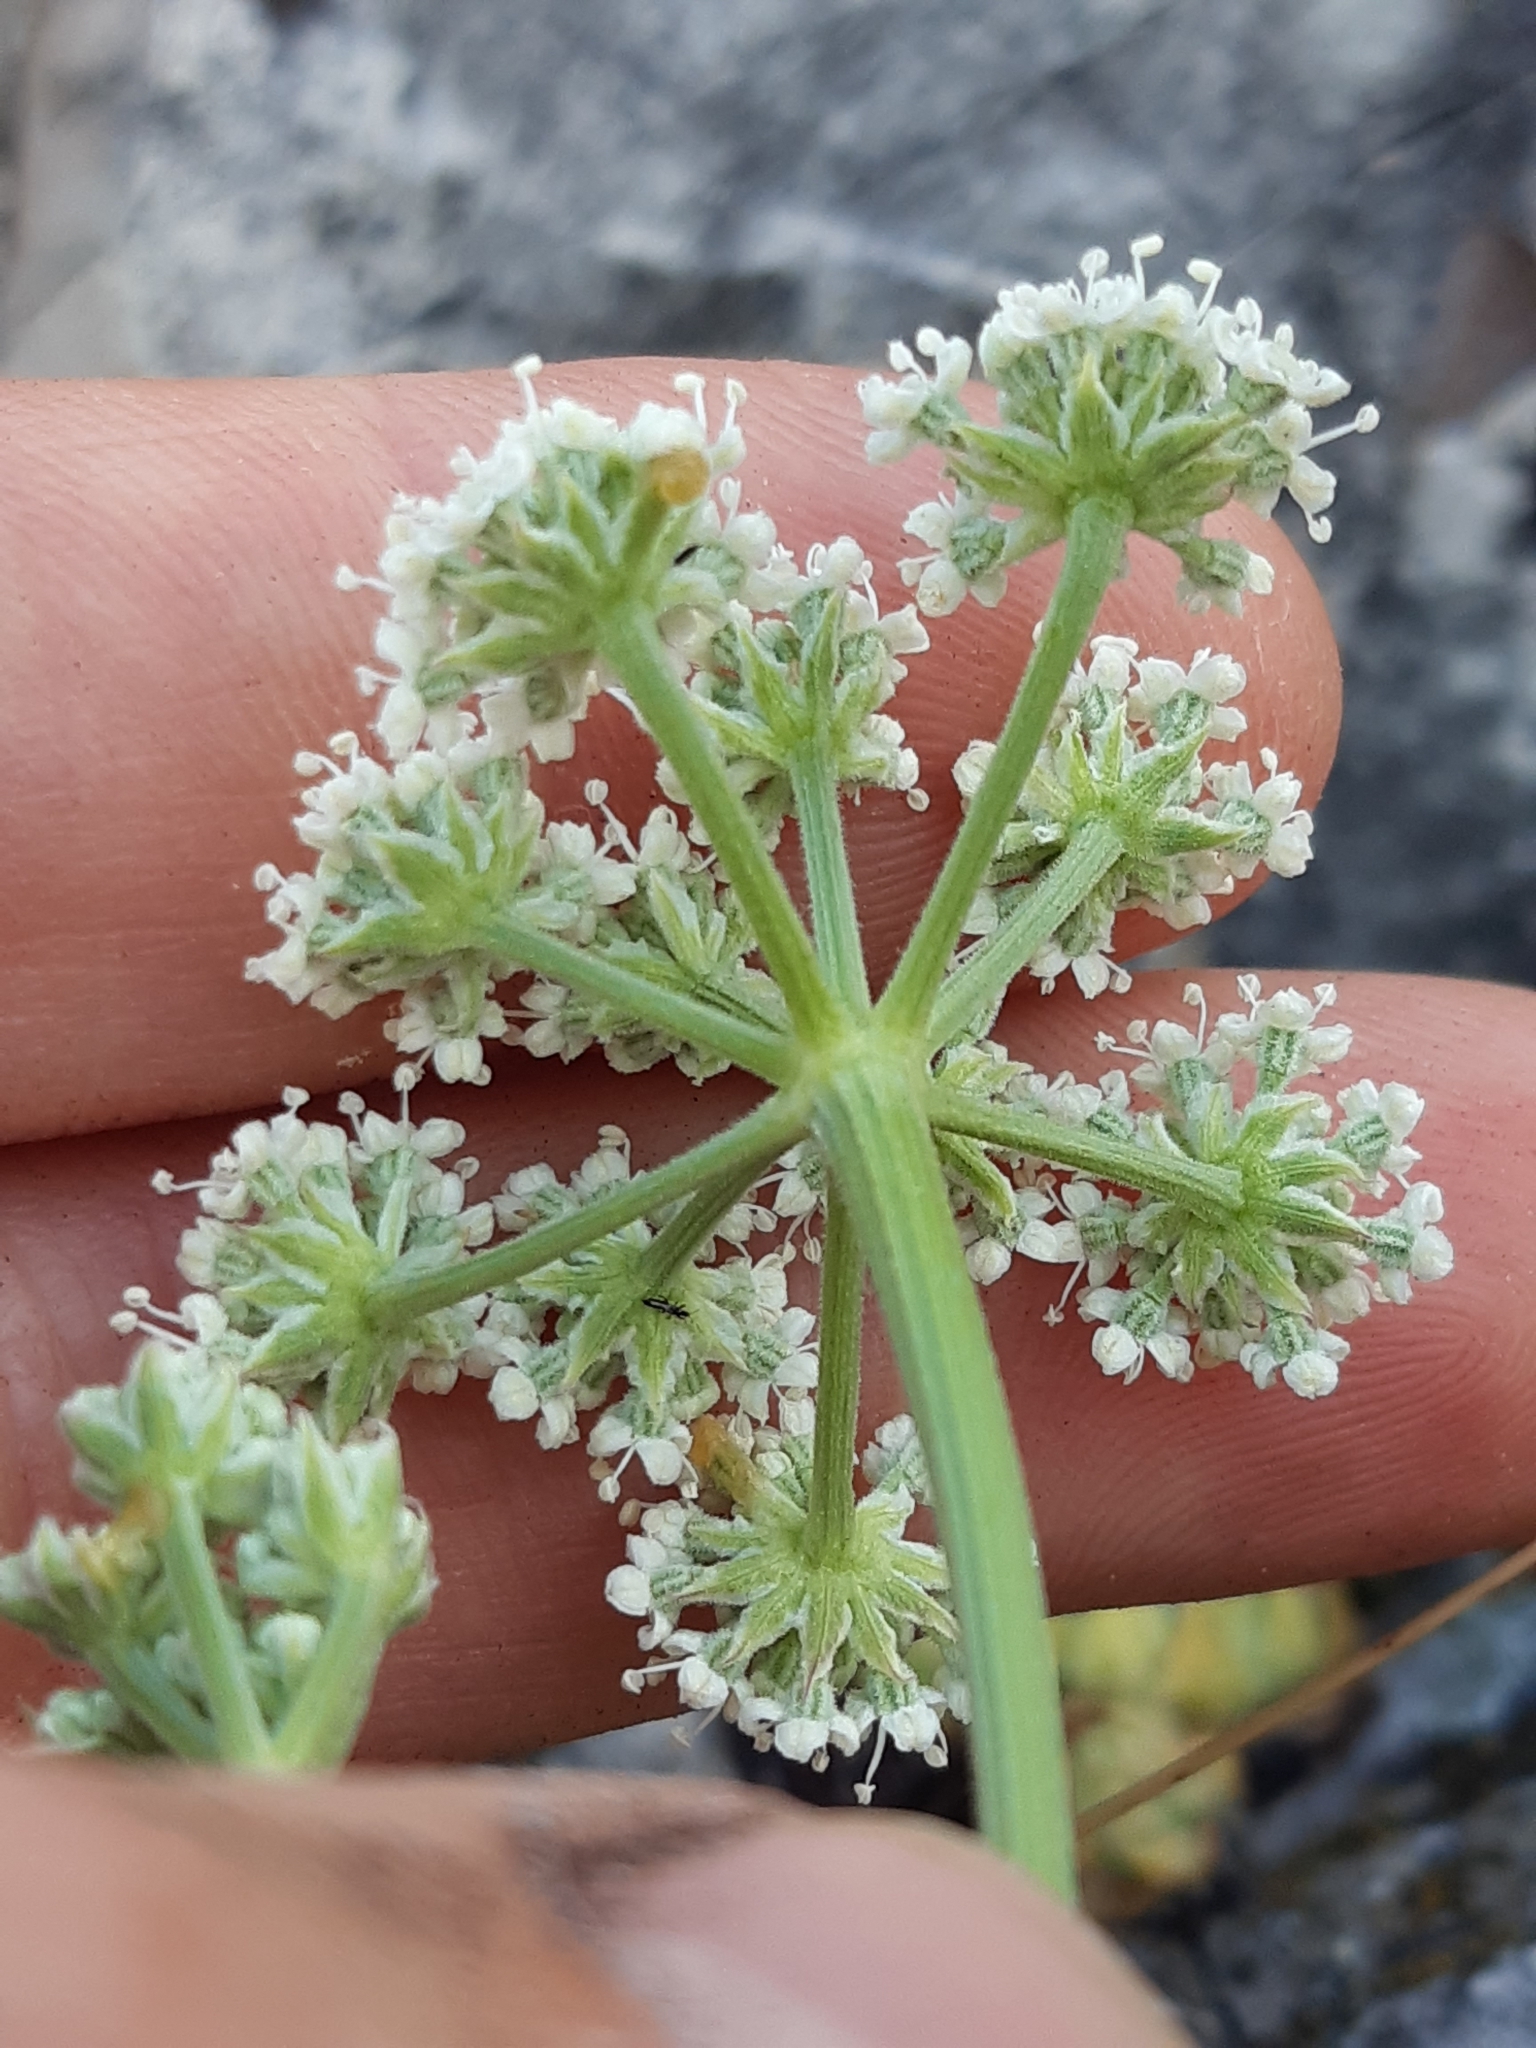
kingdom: Plantae
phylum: Tracheophyta
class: Magnoliopsida
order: Apiales
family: Apiaceae
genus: Seseli
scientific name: Seseli leucospermum
